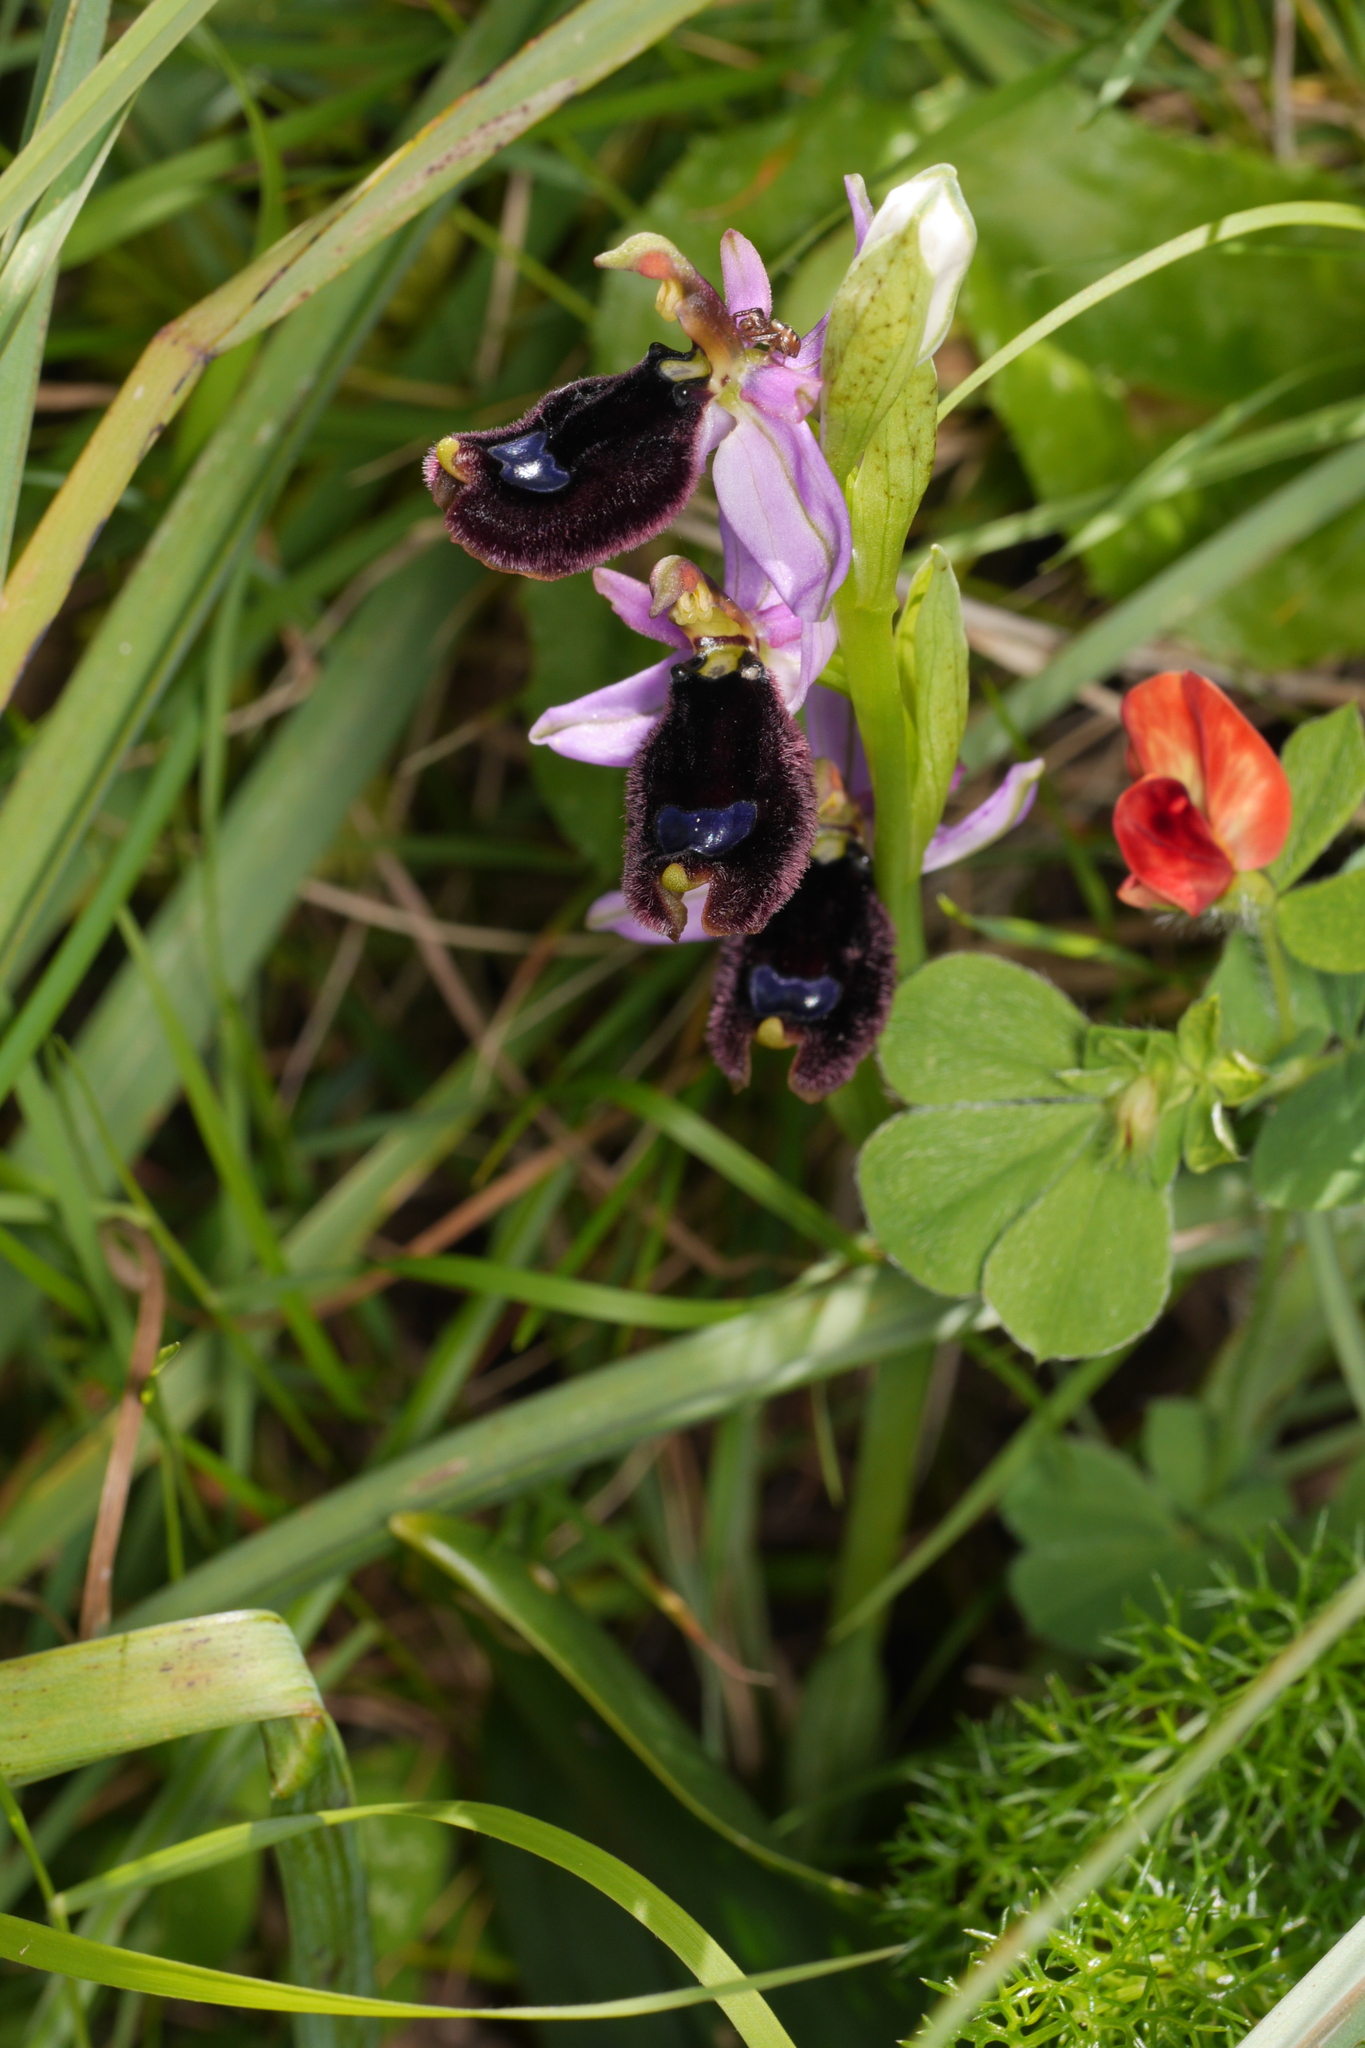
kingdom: Plantae
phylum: Tracheophyta
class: Liliopsida
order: Asparagales
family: Orchidaceae
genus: Ophrys
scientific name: Ophrys bertolonii
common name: Bertoloni's bee orchid
